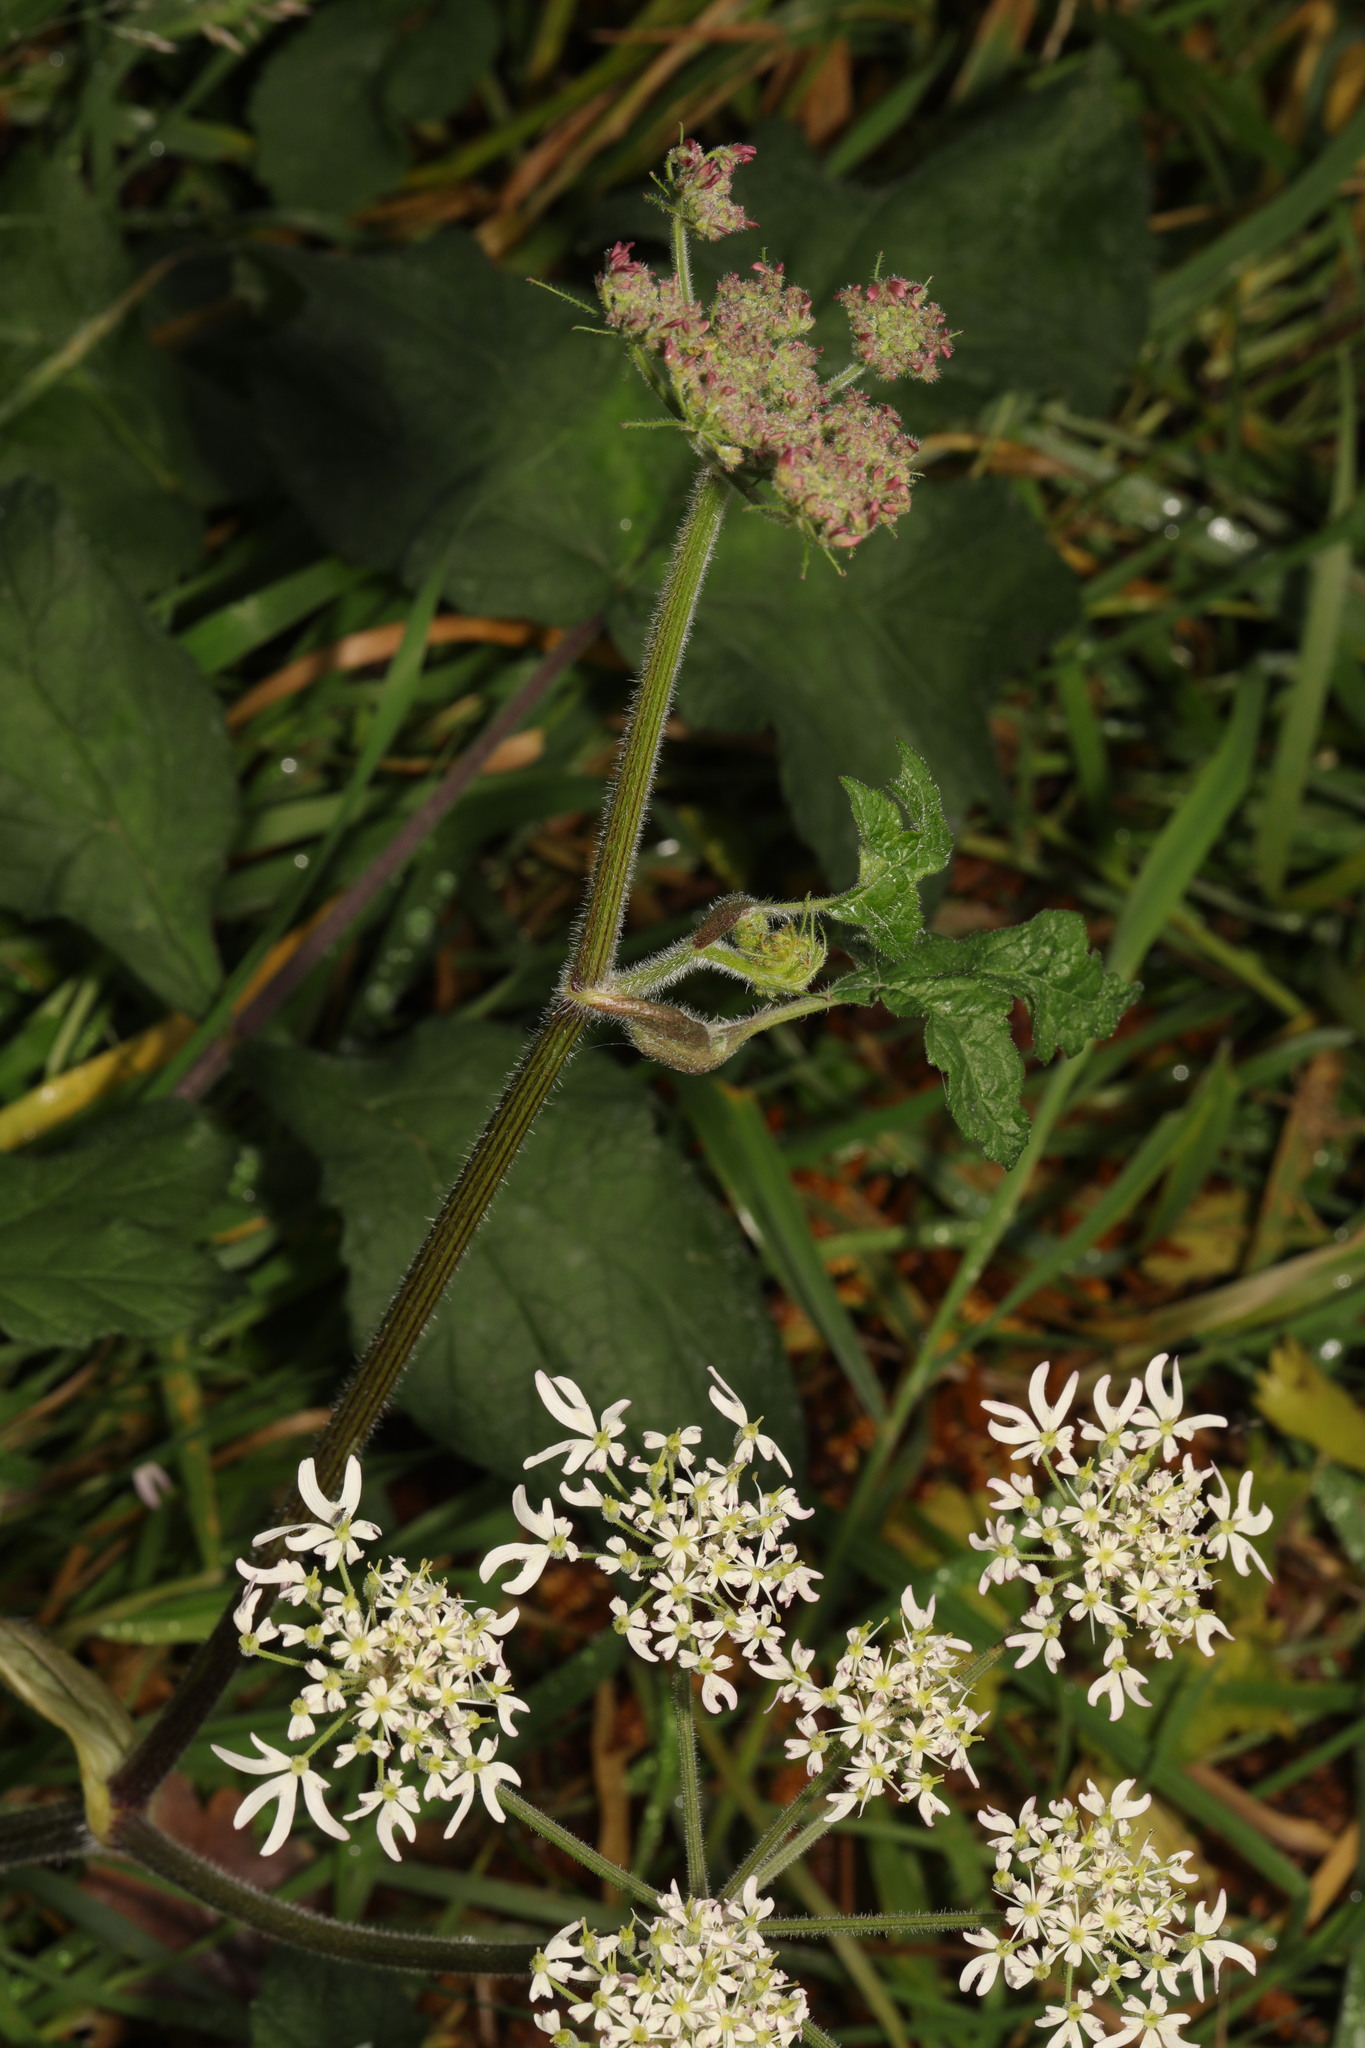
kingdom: Plantae
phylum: Tracheophyta
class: Magnoliopsida
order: Apiales
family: Apiaceae
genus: Heracleum
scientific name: Heracleum sphondylium
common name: Hogweed
